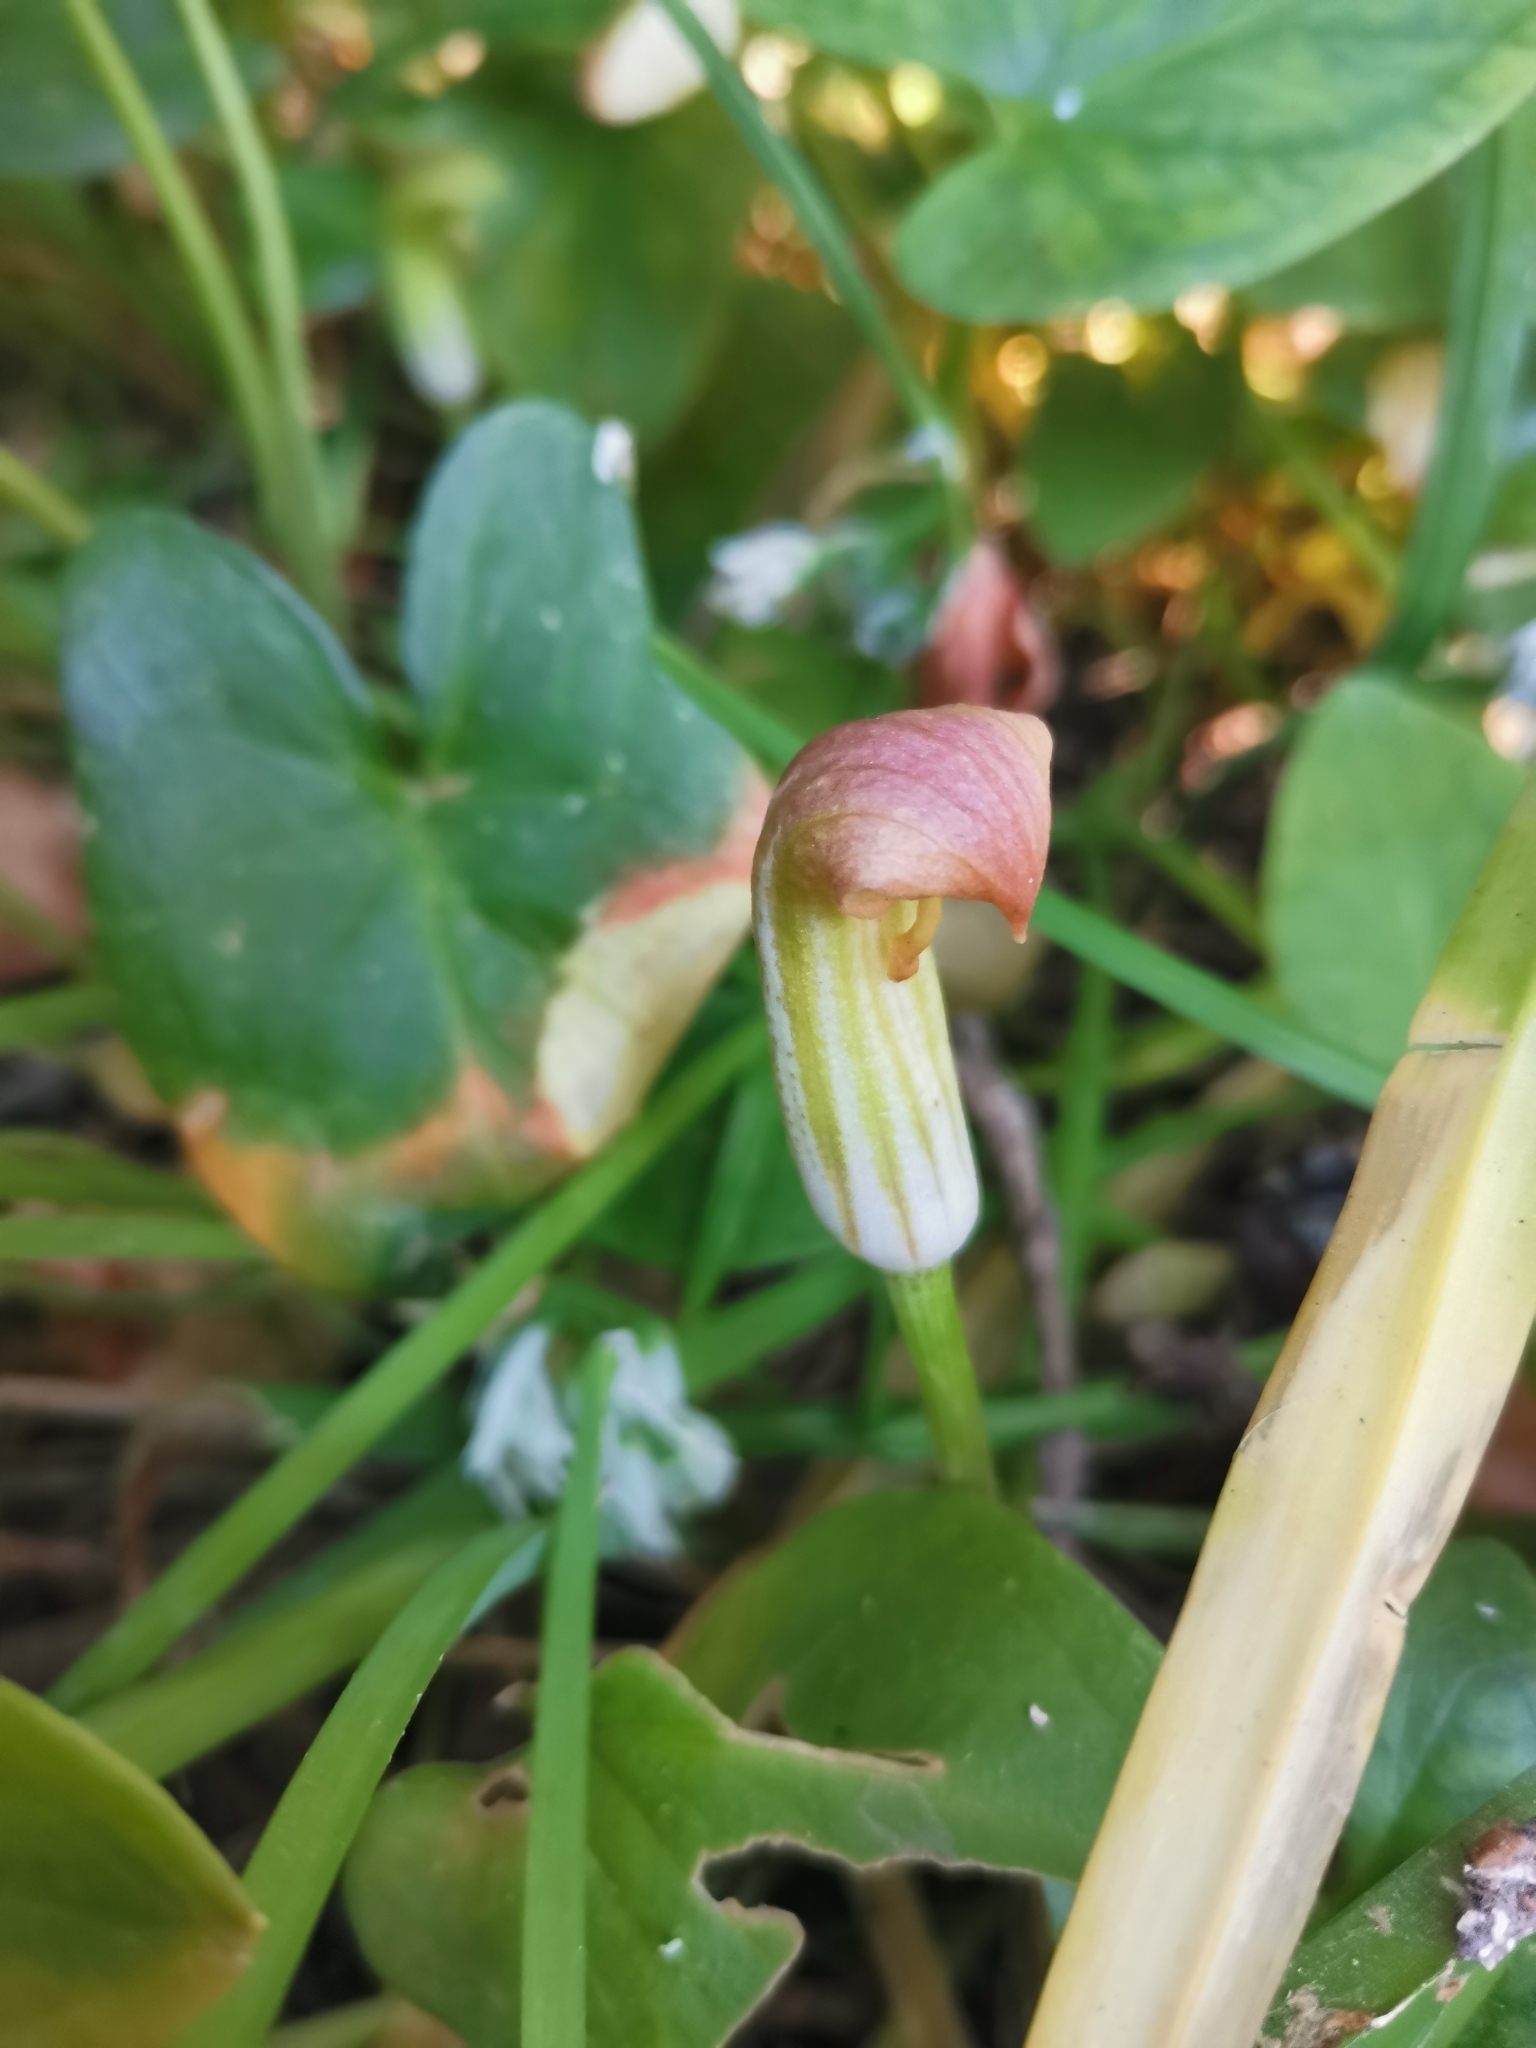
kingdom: Plantae
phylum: Tracheophyta
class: Liliopsida
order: Alismatales
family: Araceae
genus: Arisarum
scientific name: Arisarum vulgare
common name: Common arisarum
